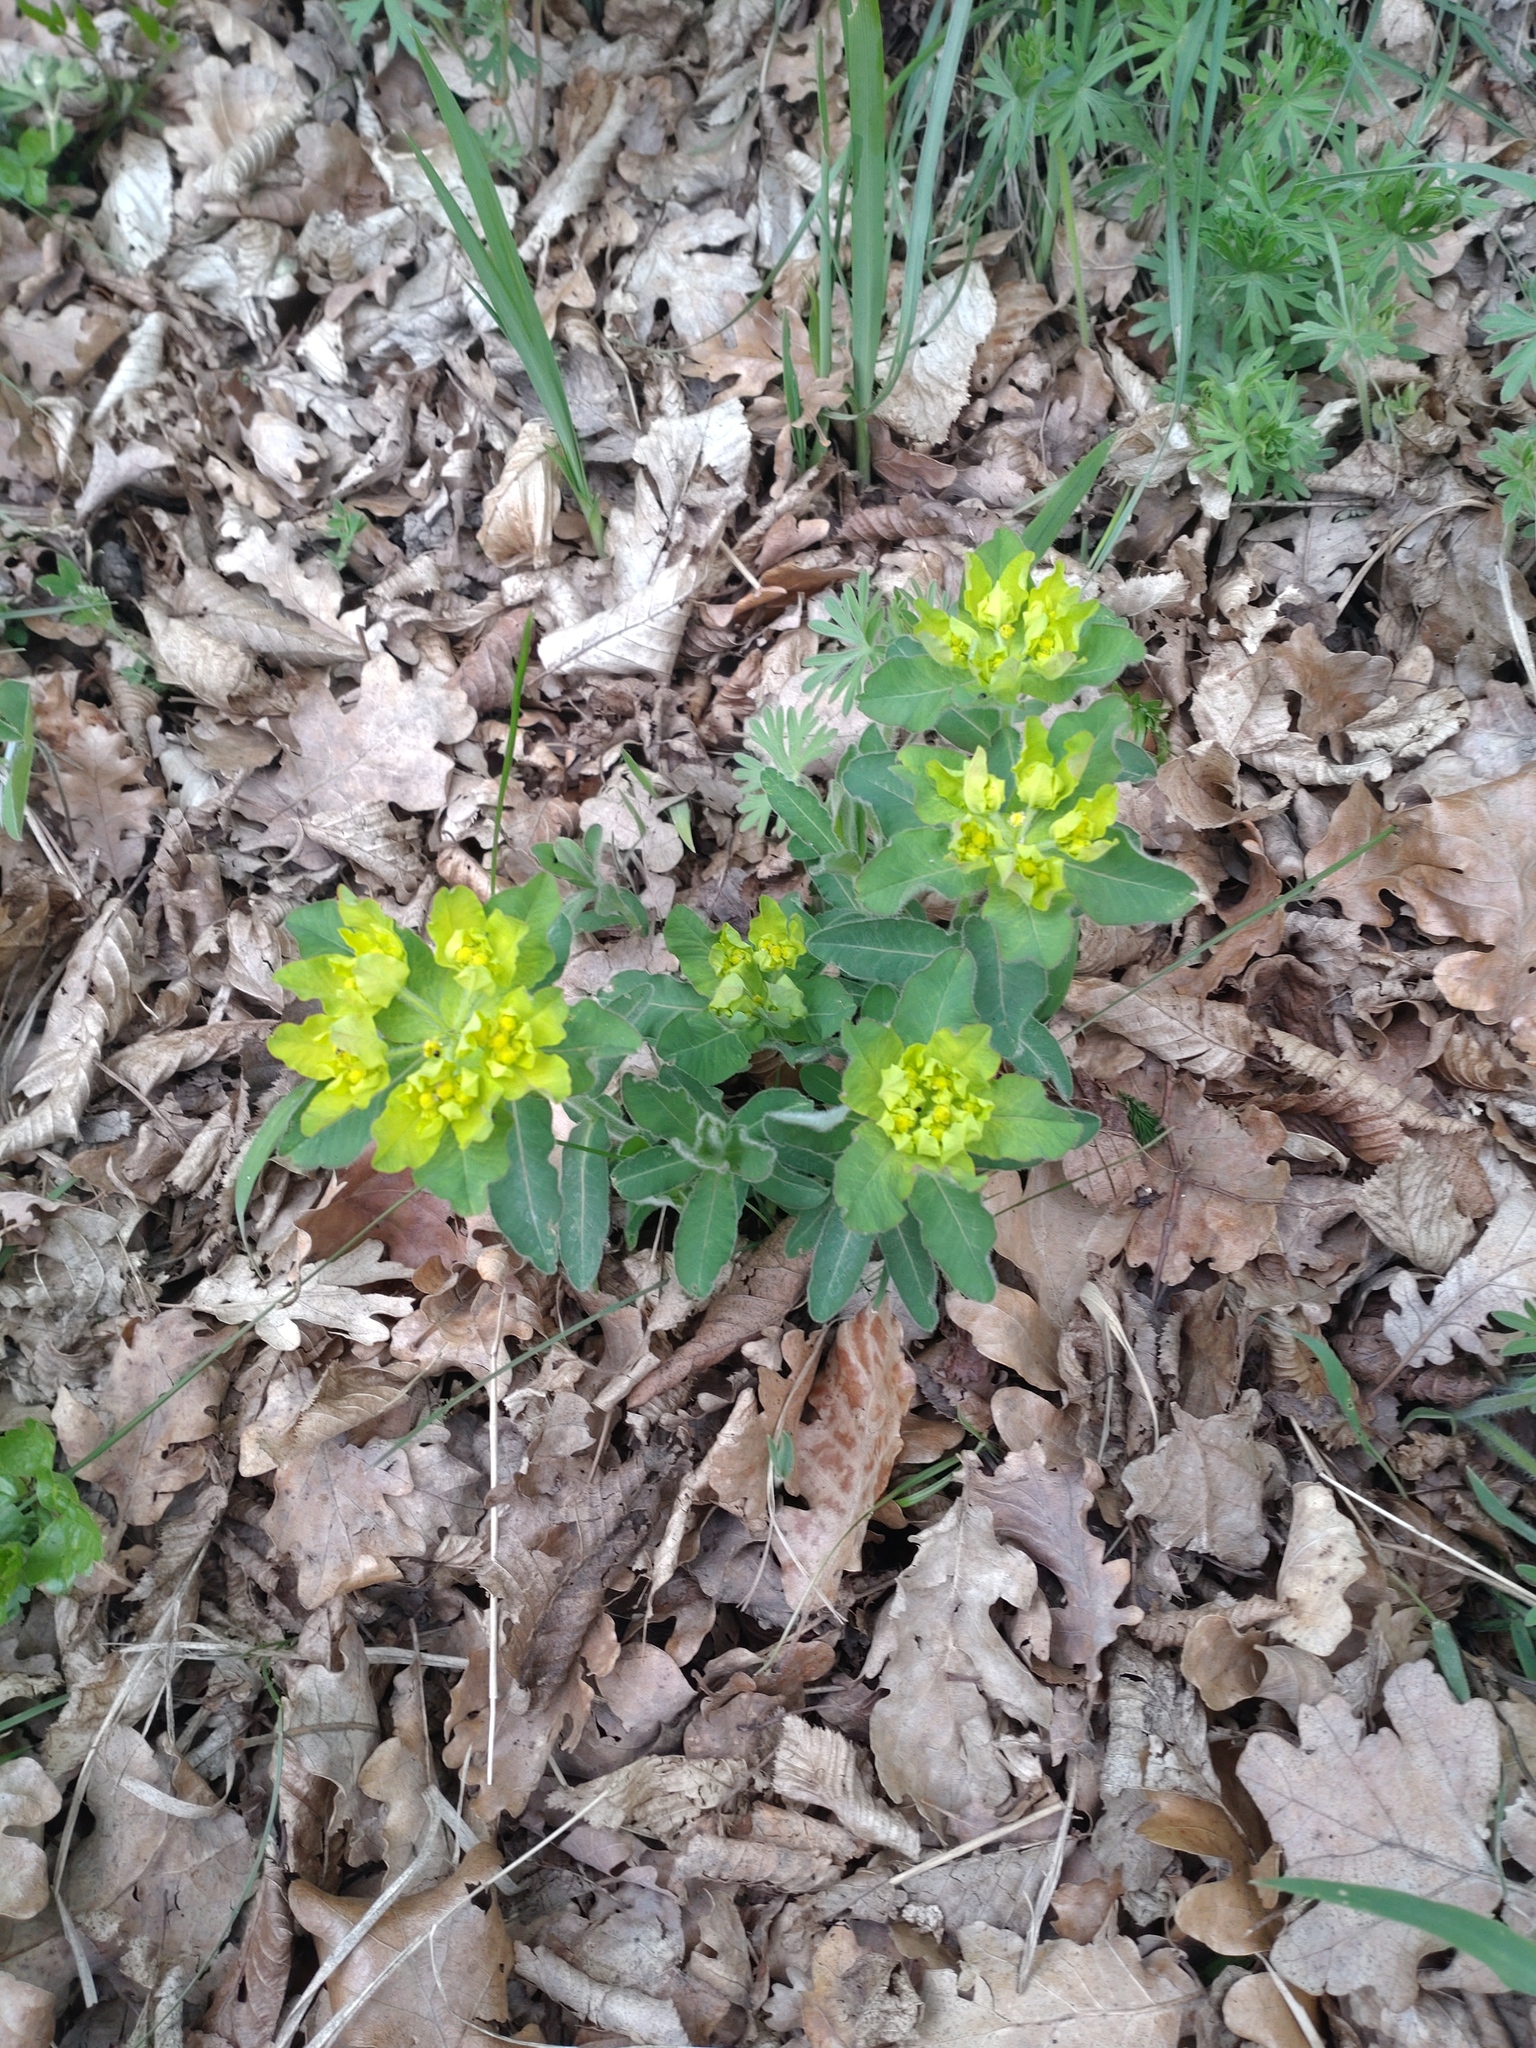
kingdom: Plantae
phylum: Tracheophyta
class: Magnoliopsida
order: Malpighiales
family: Euphorbiaceae
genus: Euphorbia
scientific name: Euphorbia epithymoides
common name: Cushion spurge
